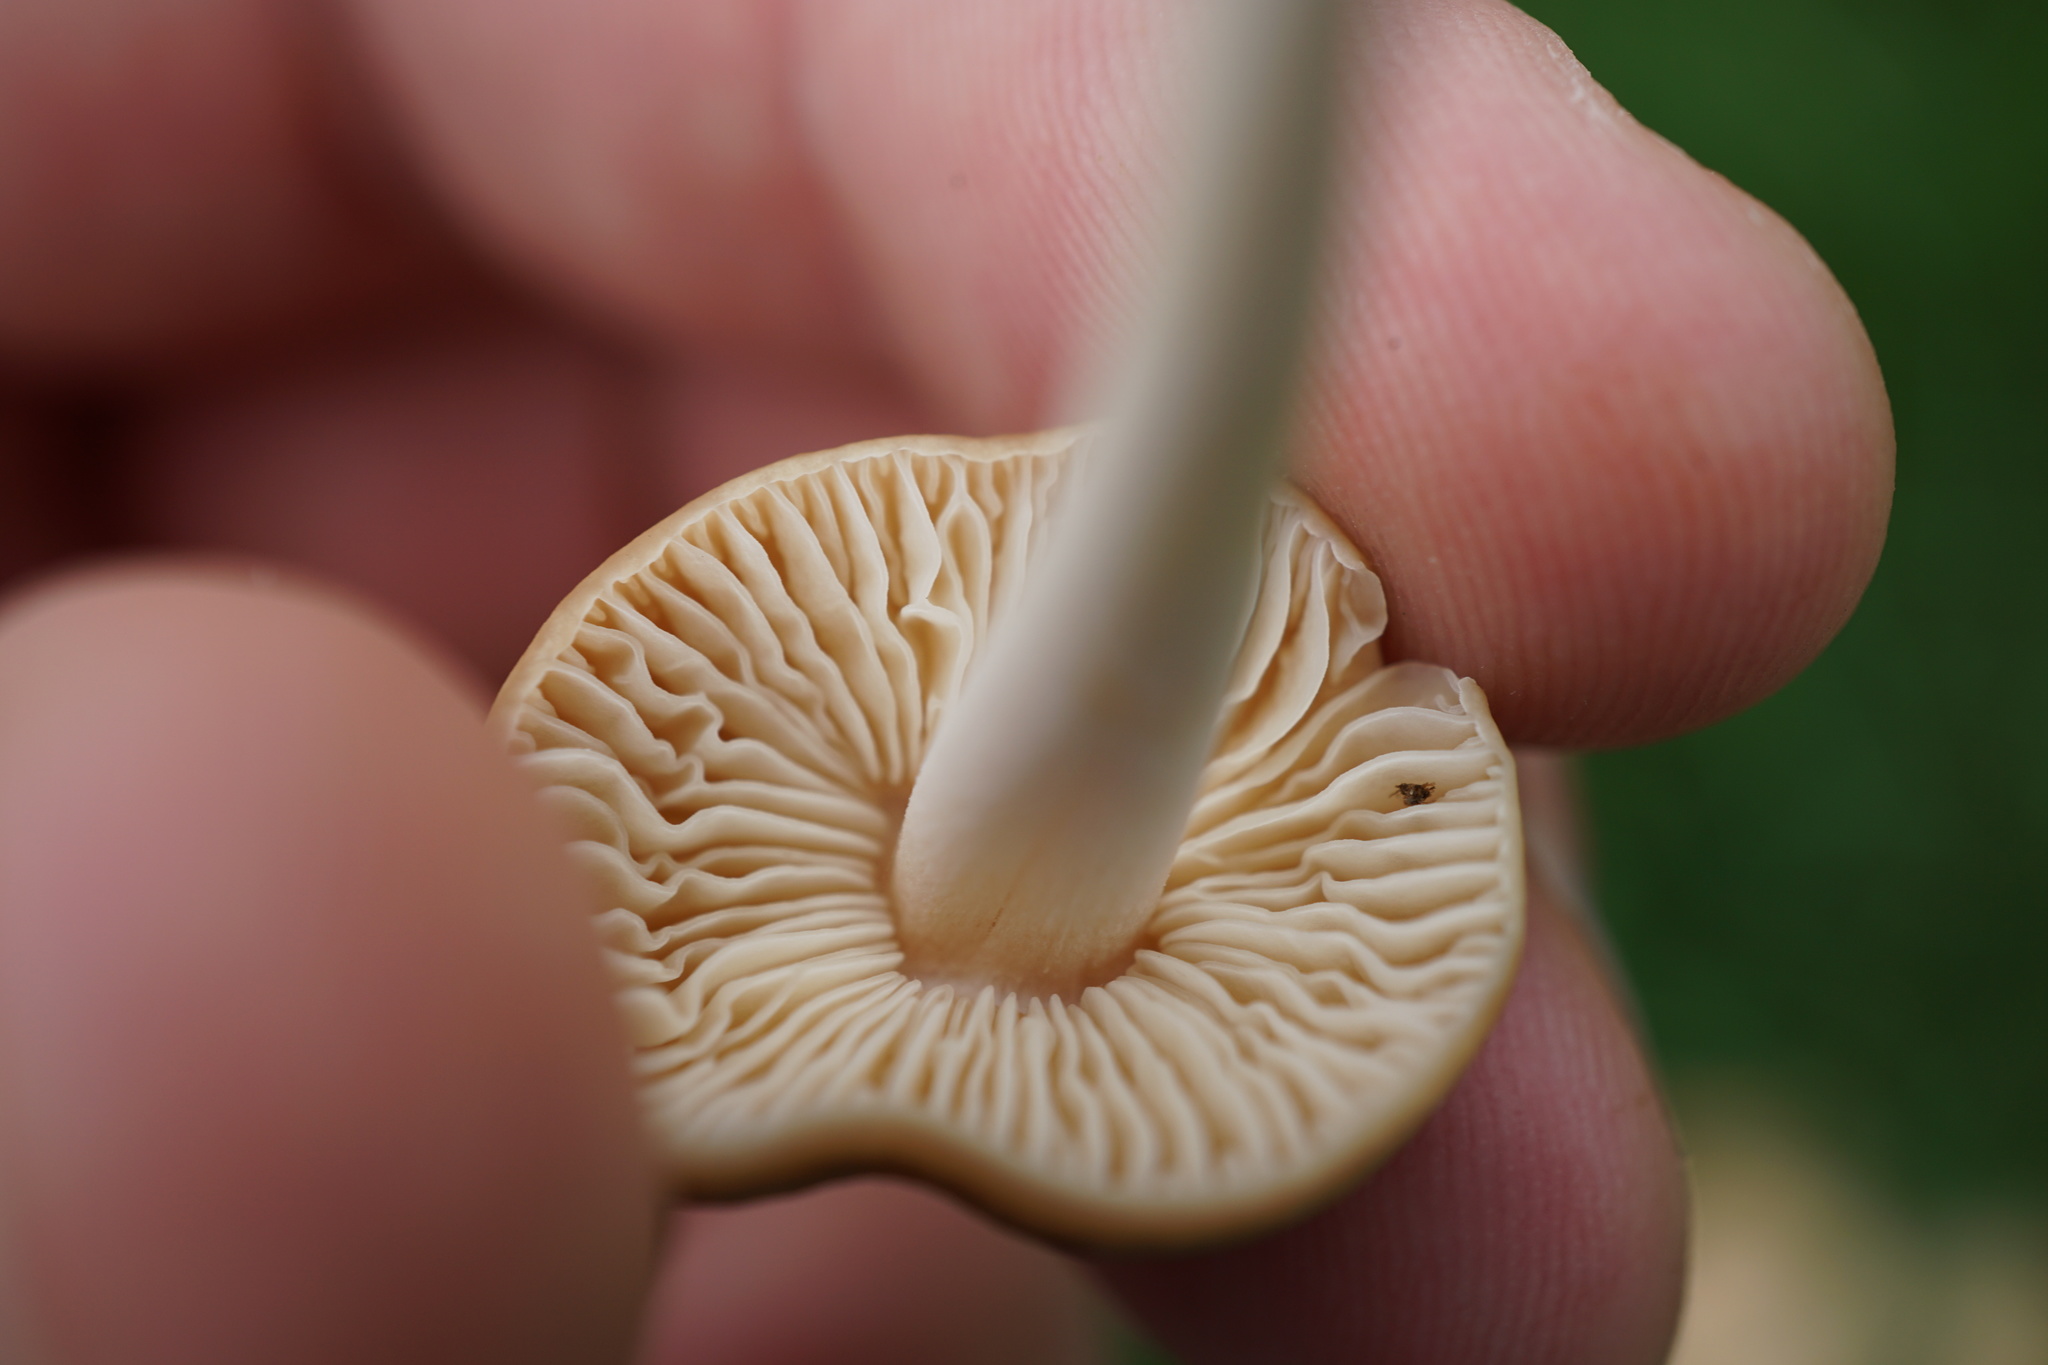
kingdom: Fungi
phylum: Basidiomycota
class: Agaricomycetes
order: Agaricales
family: Marasmiaceae
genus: Marasmius
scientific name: Marasmius oreades
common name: Fairy ring champignon
